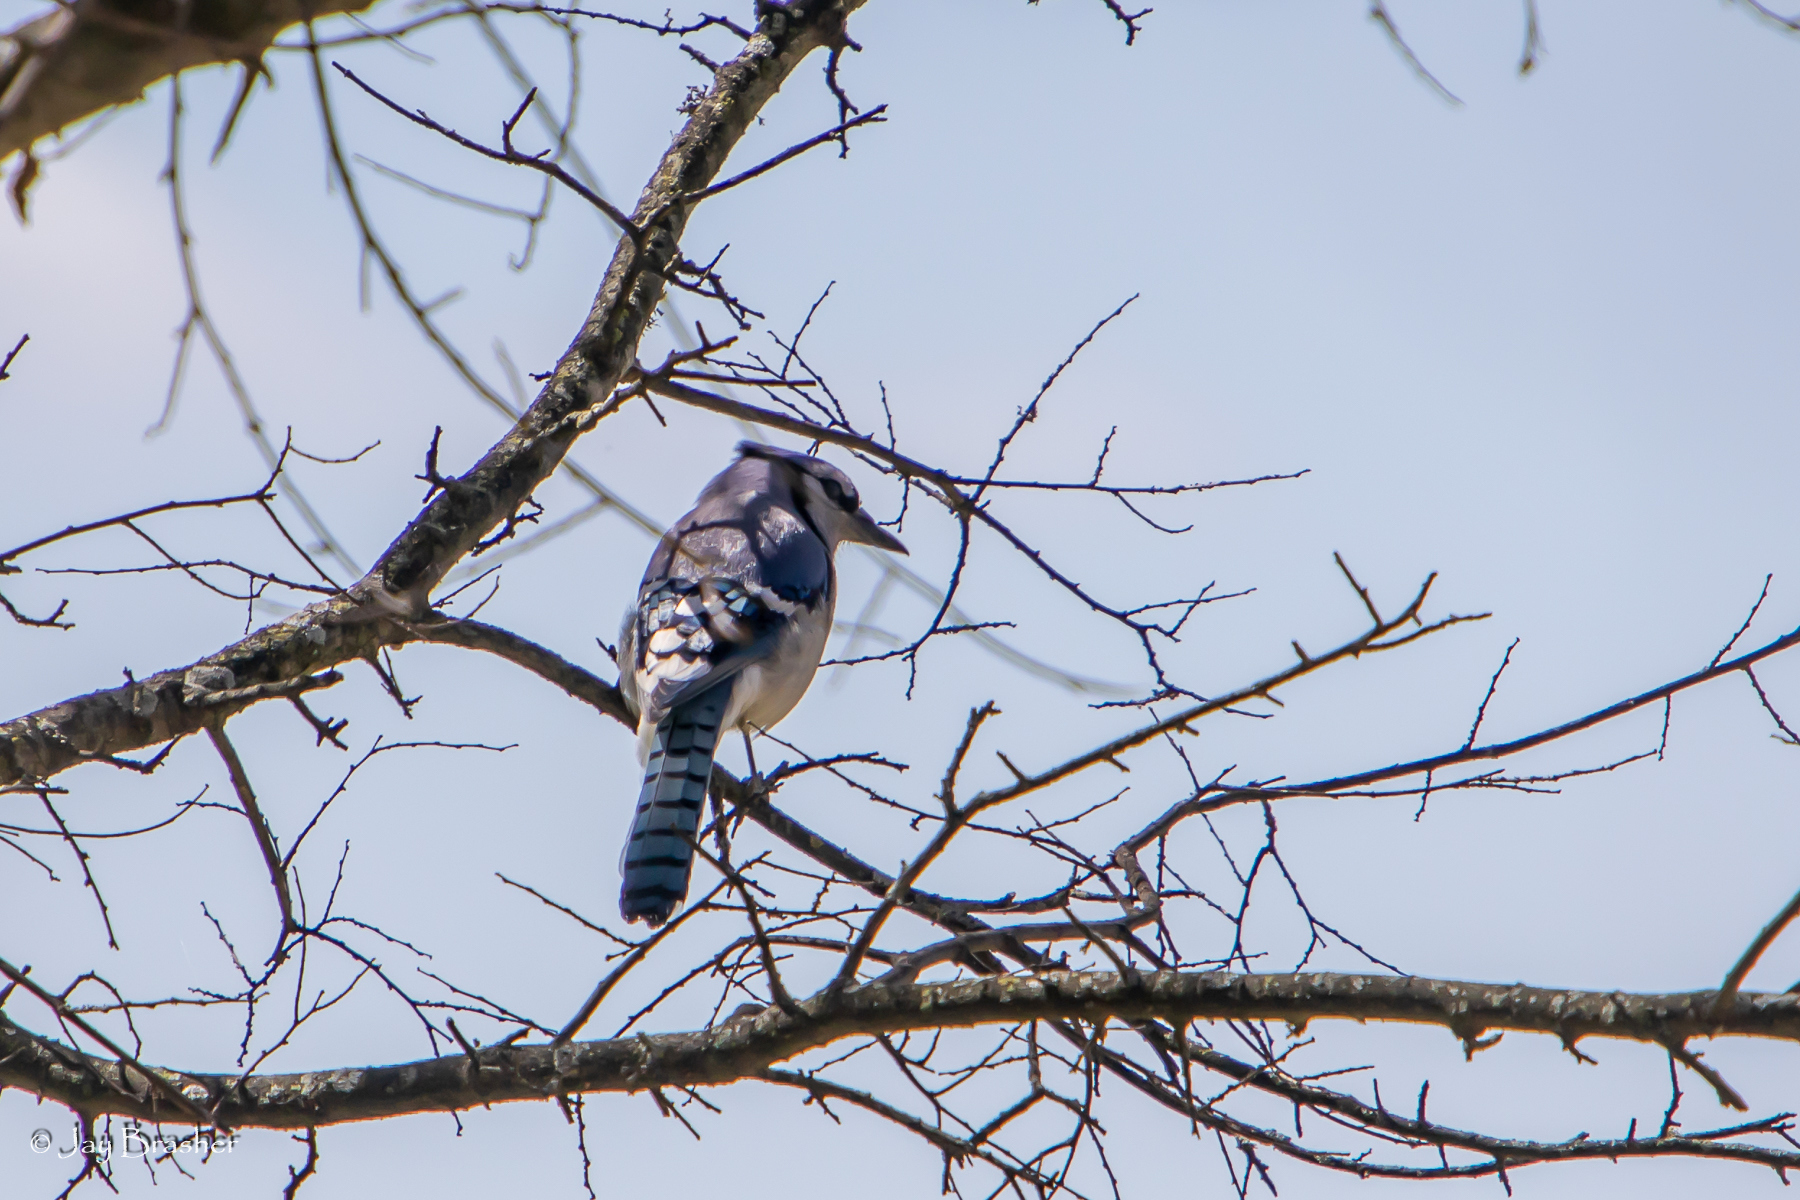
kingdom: Animalia
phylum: Chordata
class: Aves
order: Passeriformes
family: Corvidae
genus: Cyanocitta
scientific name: Cyanocitta cristata
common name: Blue jay
